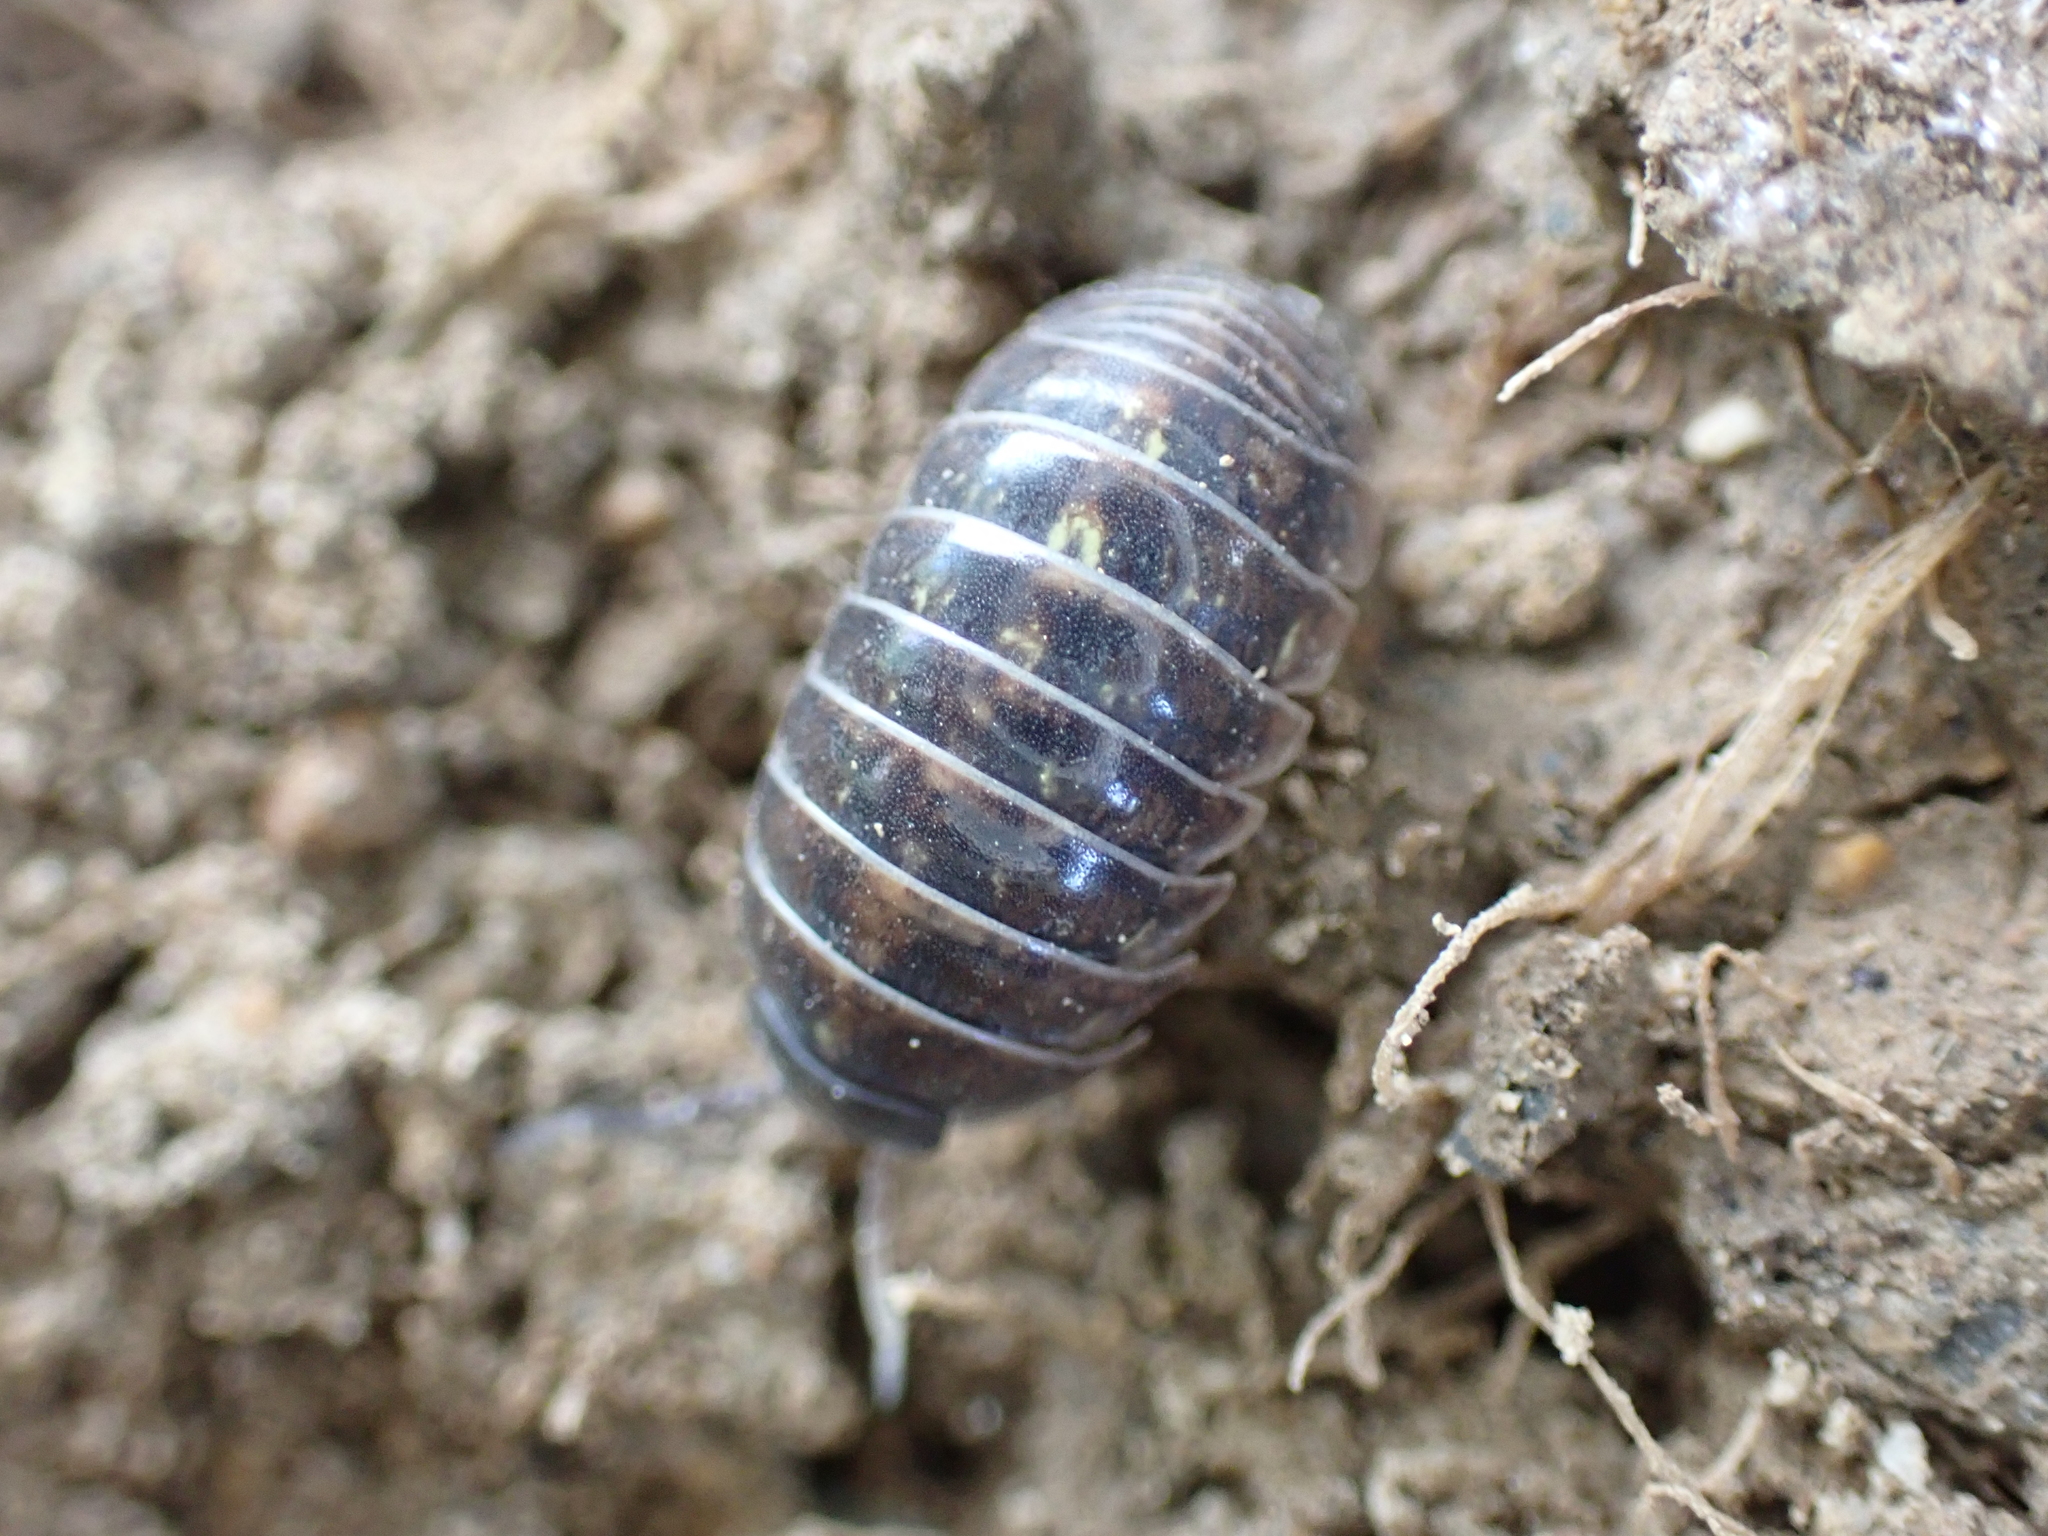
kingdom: Animalia
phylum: Arthropoda
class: Malacostraca
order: Isopoda
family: Armadillidiidae
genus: Armadillidium
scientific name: Armadillidium vulgare
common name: Common pill woodlouse
